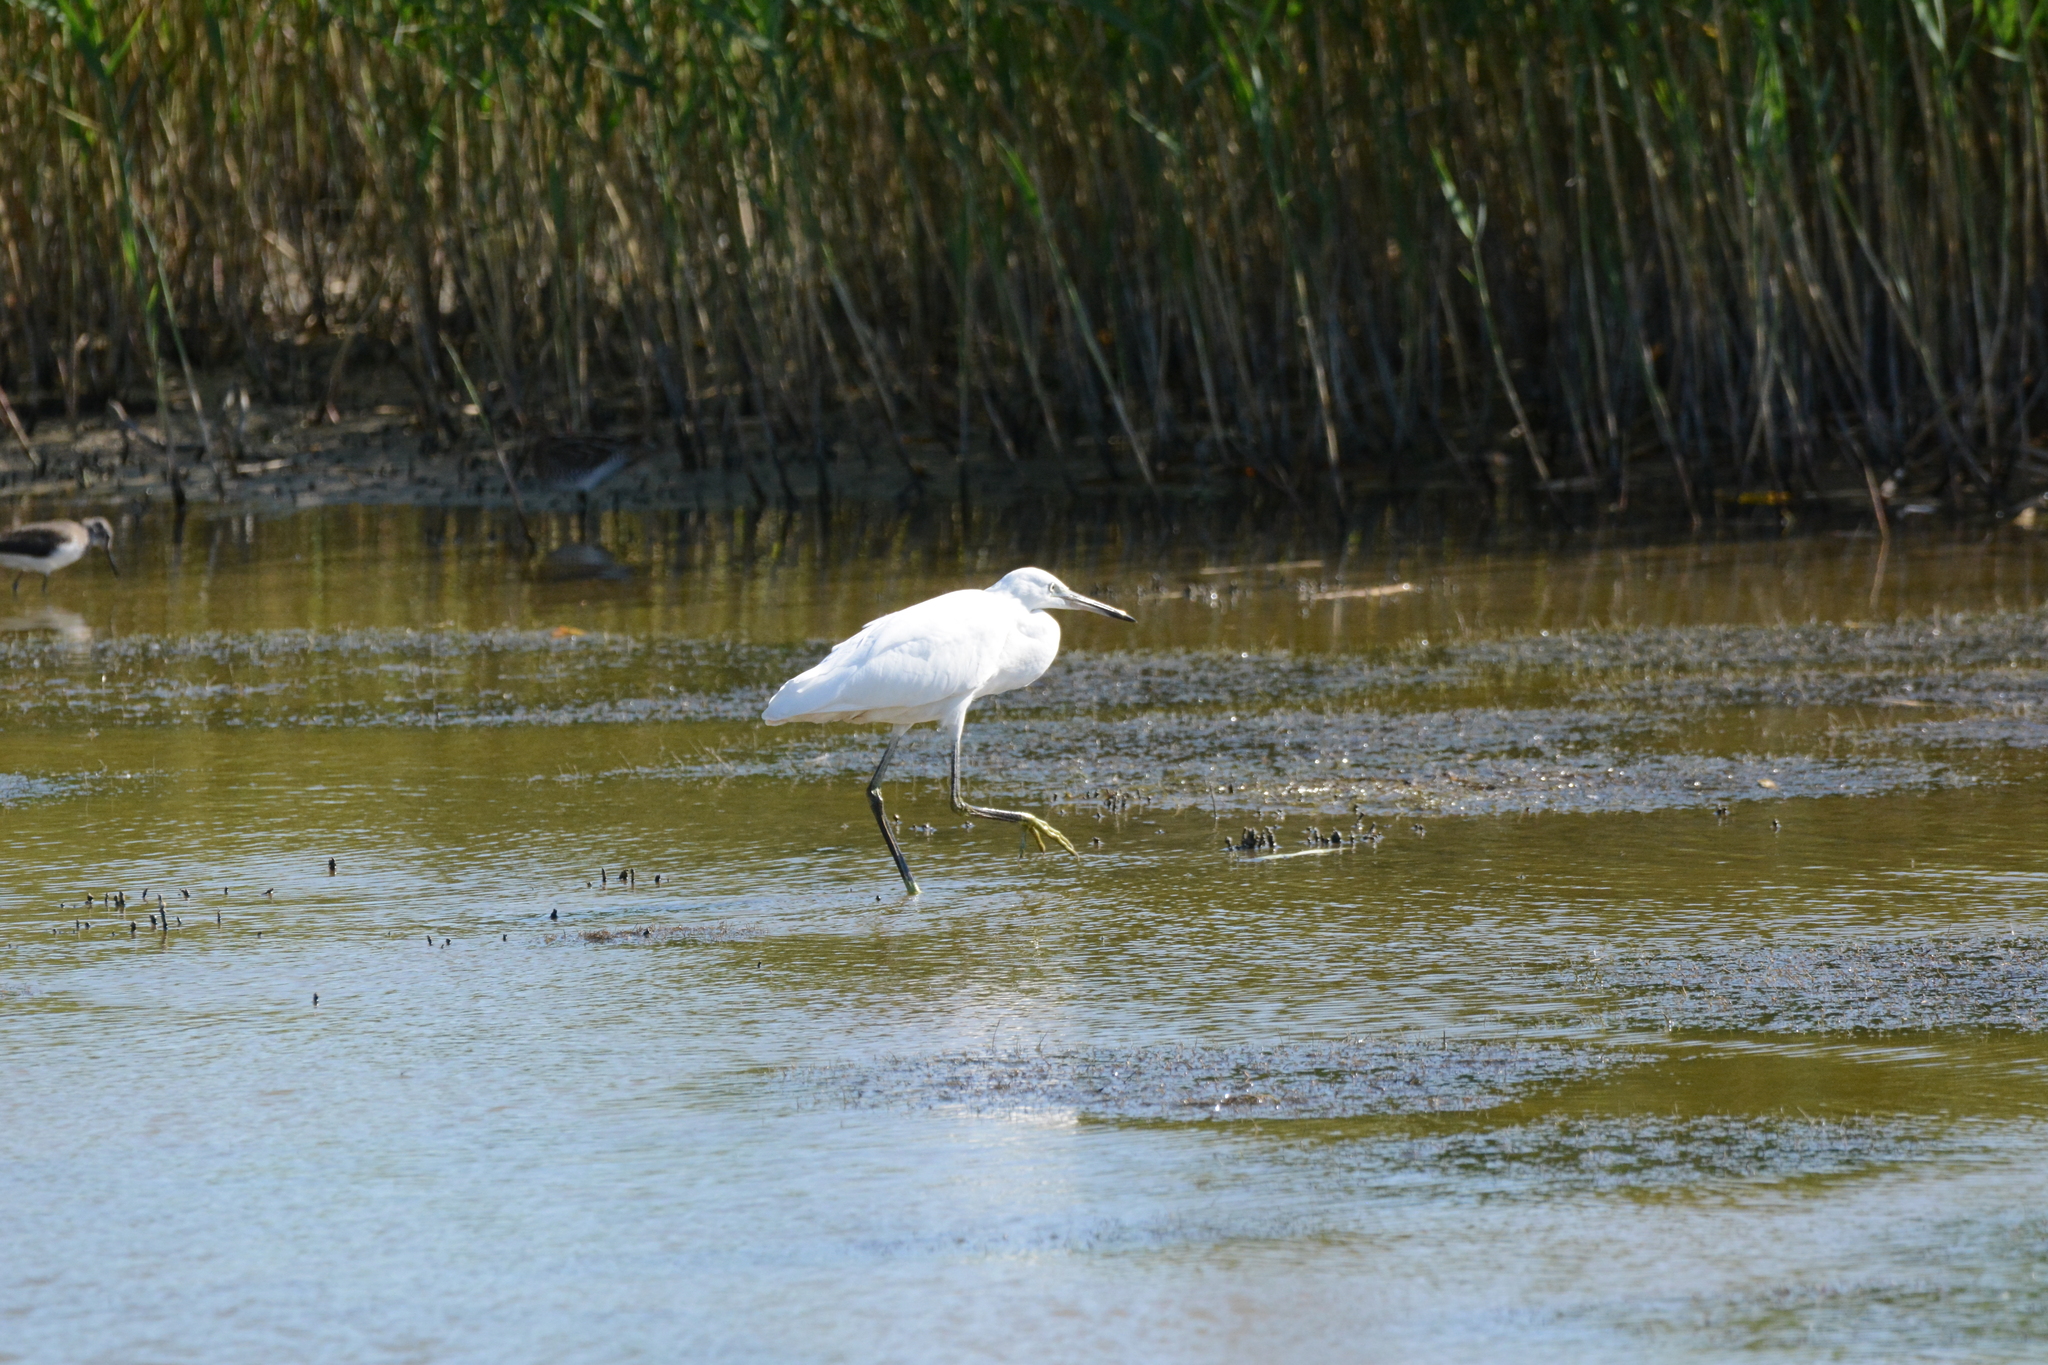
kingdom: Animalia
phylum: Chordata
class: Aves
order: Pelecaniformes
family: Ardeidae
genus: Egretta
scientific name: Egretta garzetta
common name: Little egret
